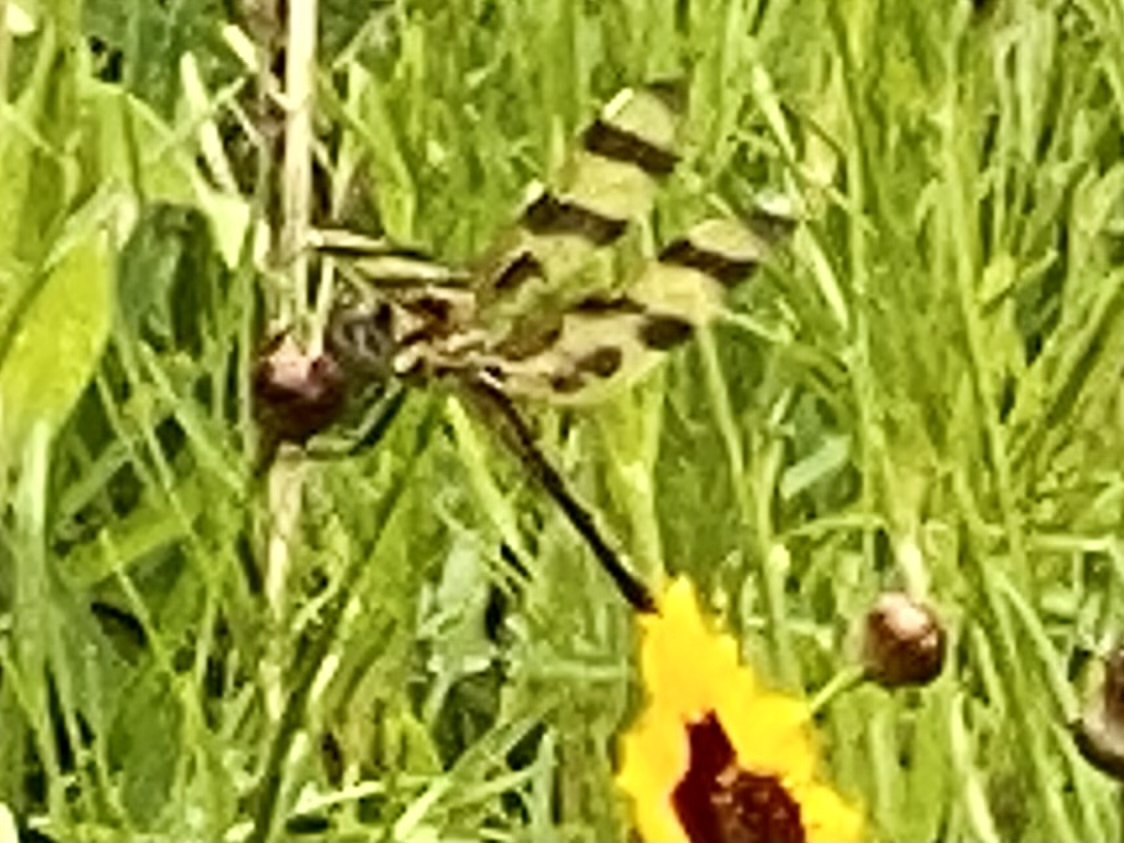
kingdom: Animalia
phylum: Arthropoda
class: Insecta
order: Odonata
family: Libellulidae
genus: Celithemis
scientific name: Celithemis eponina
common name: Halloween pennant
